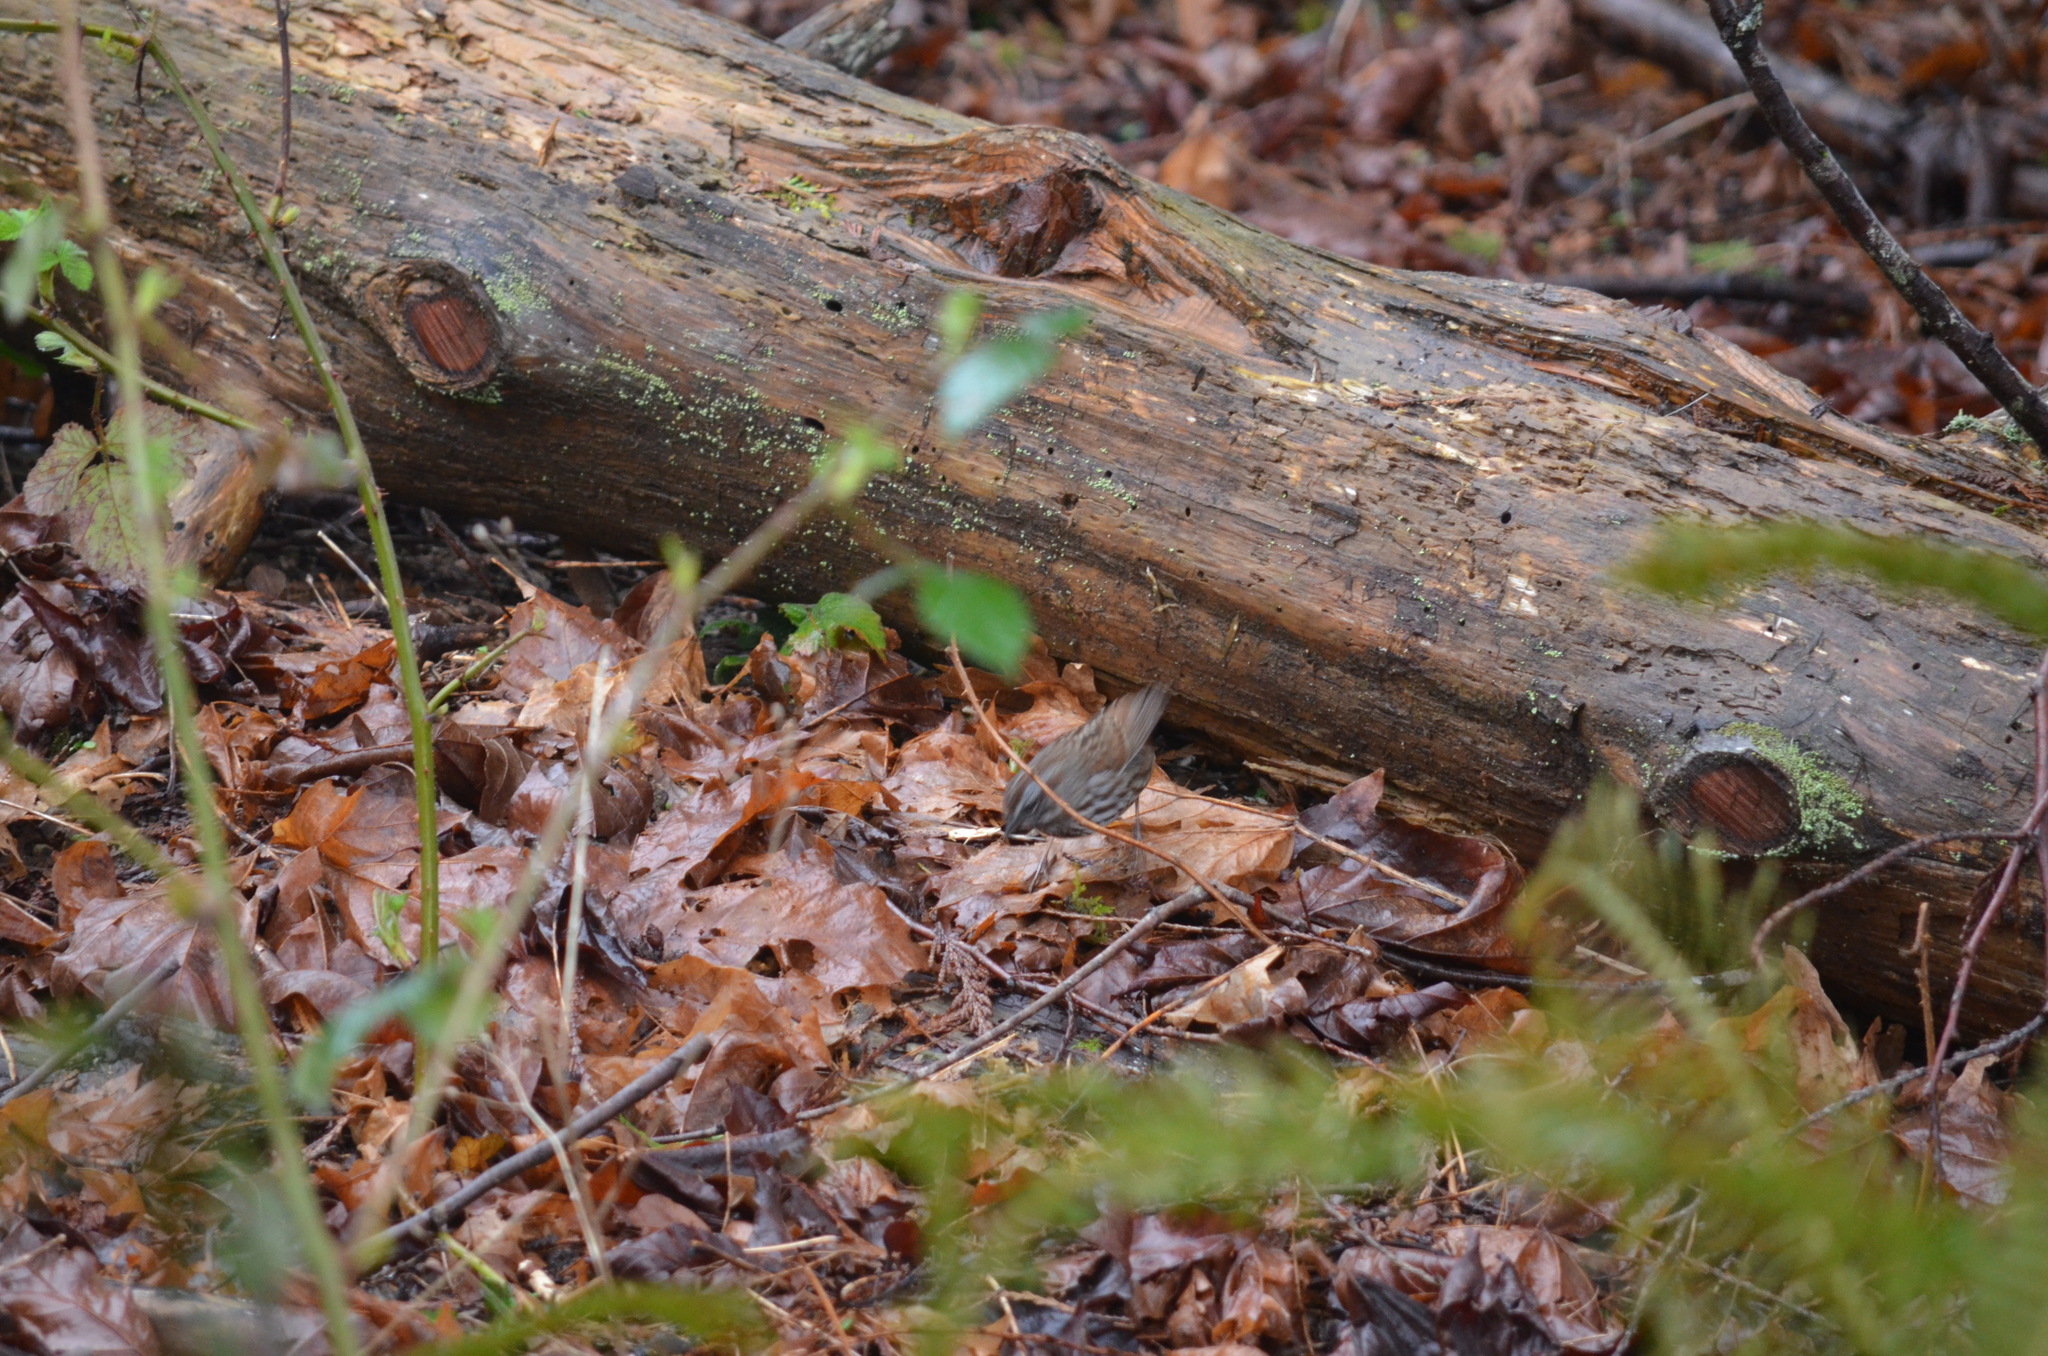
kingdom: Animalia
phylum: Chordata
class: Aves
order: Passeriformes
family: Passerellidae
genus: Melospiza
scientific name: Melospiza melodia
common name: Song sparrow
